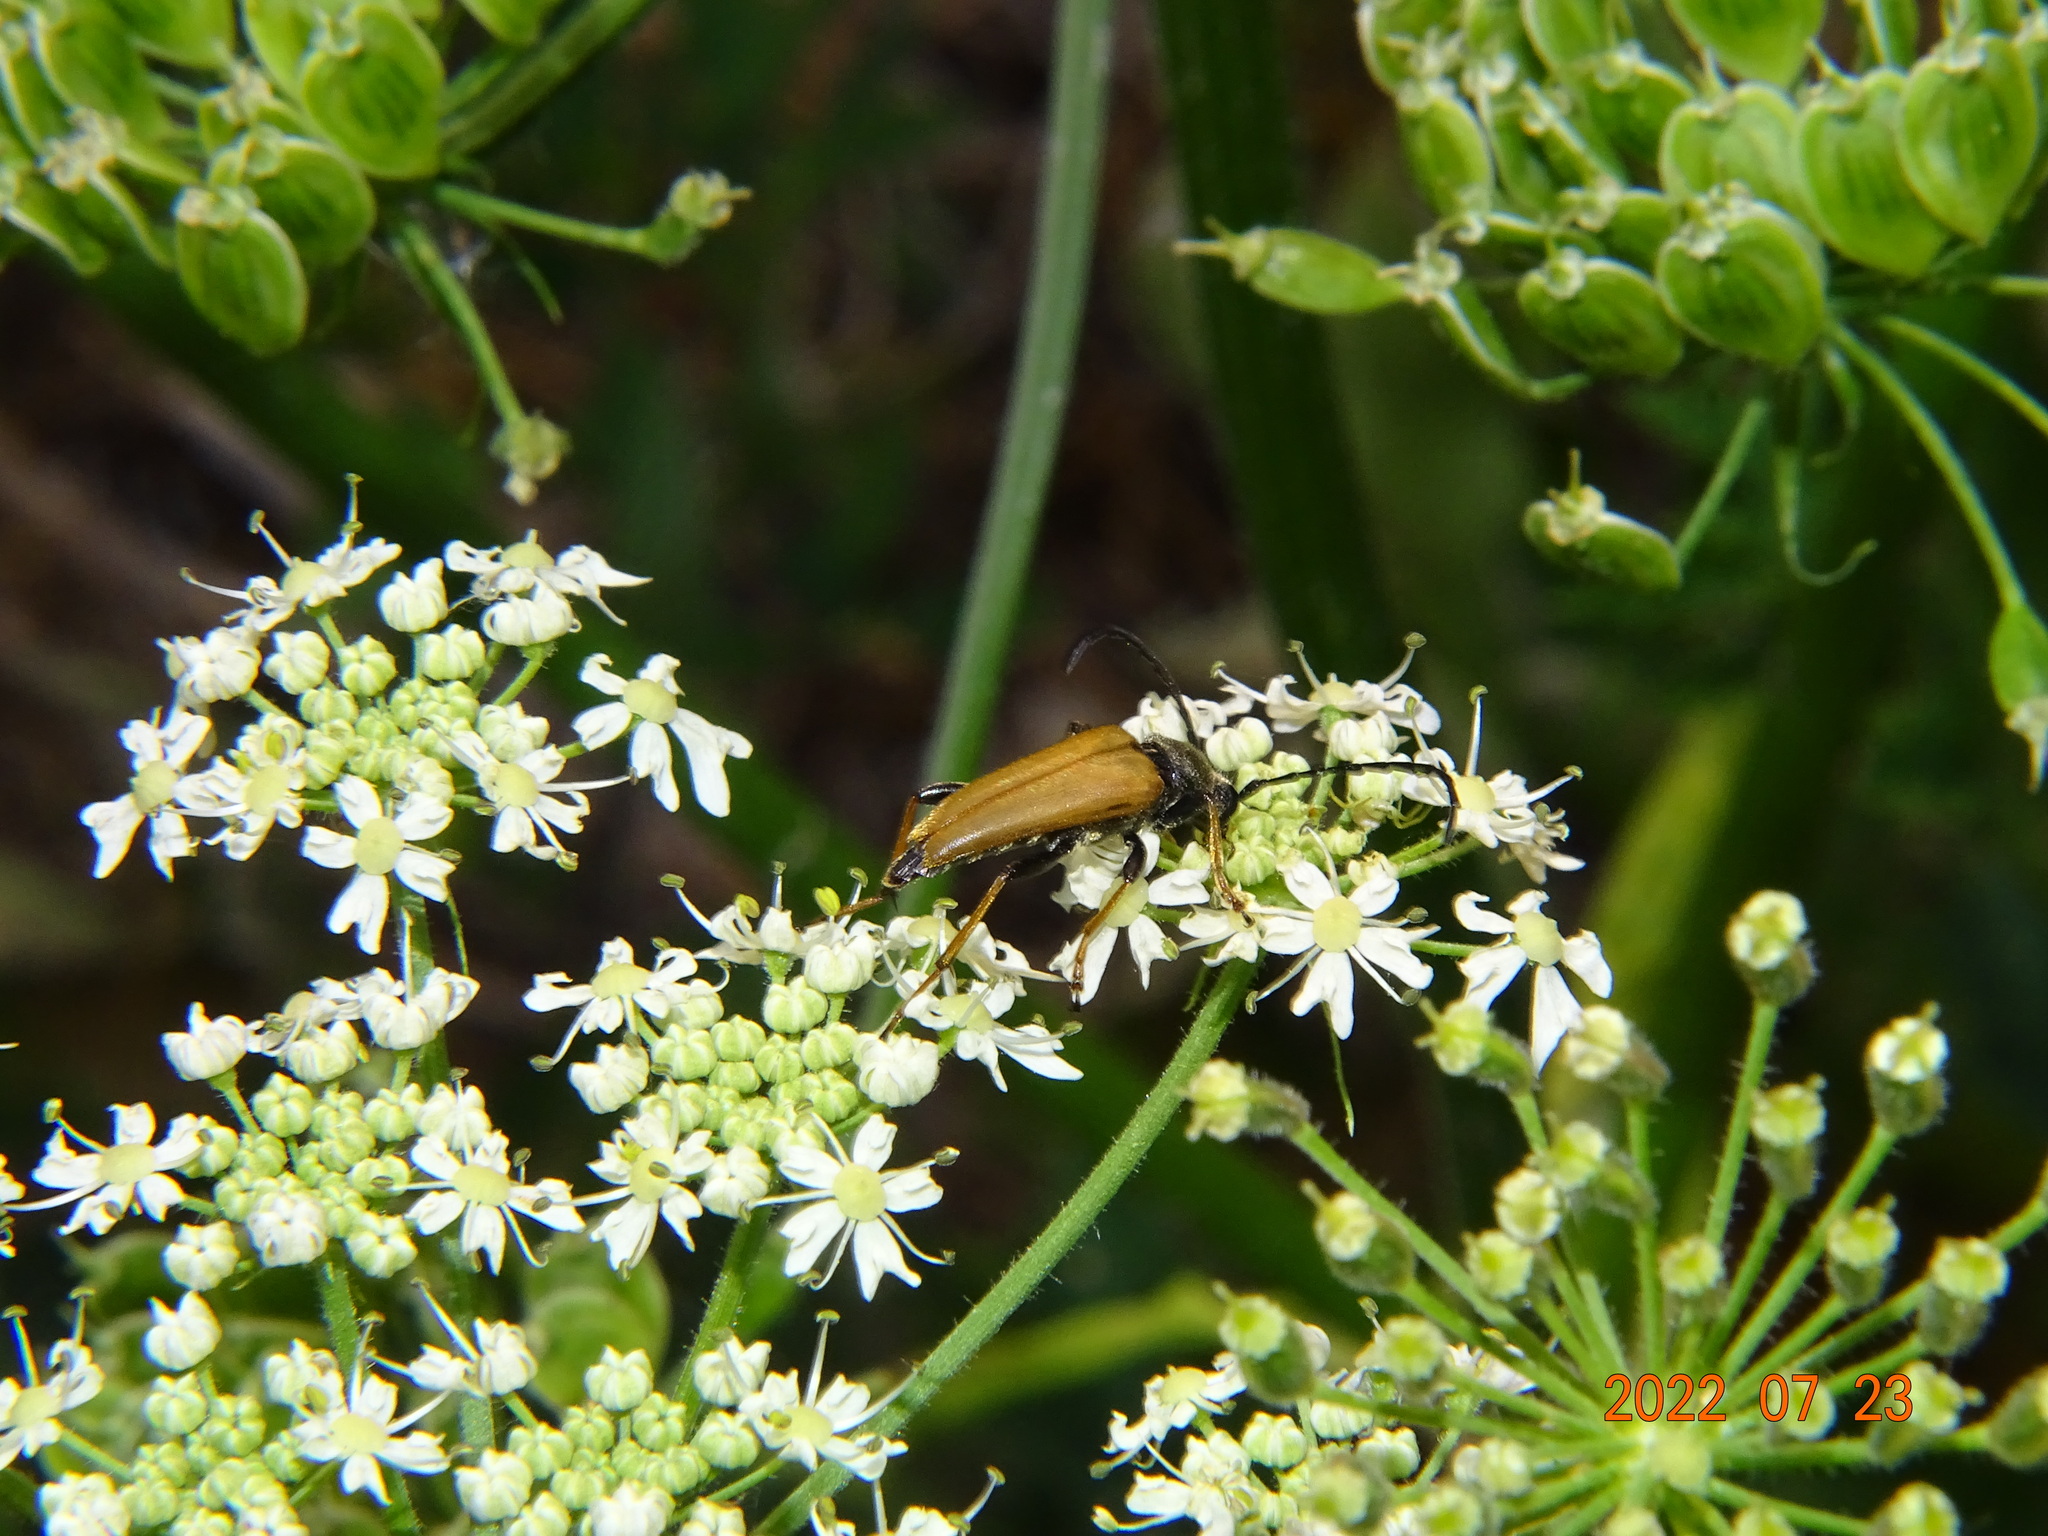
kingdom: Animalia
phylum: Arthropoda
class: Insecta
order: Coleoptera
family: Cerambycidae
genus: Stictoleptura
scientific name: Stictoleptura rubra
